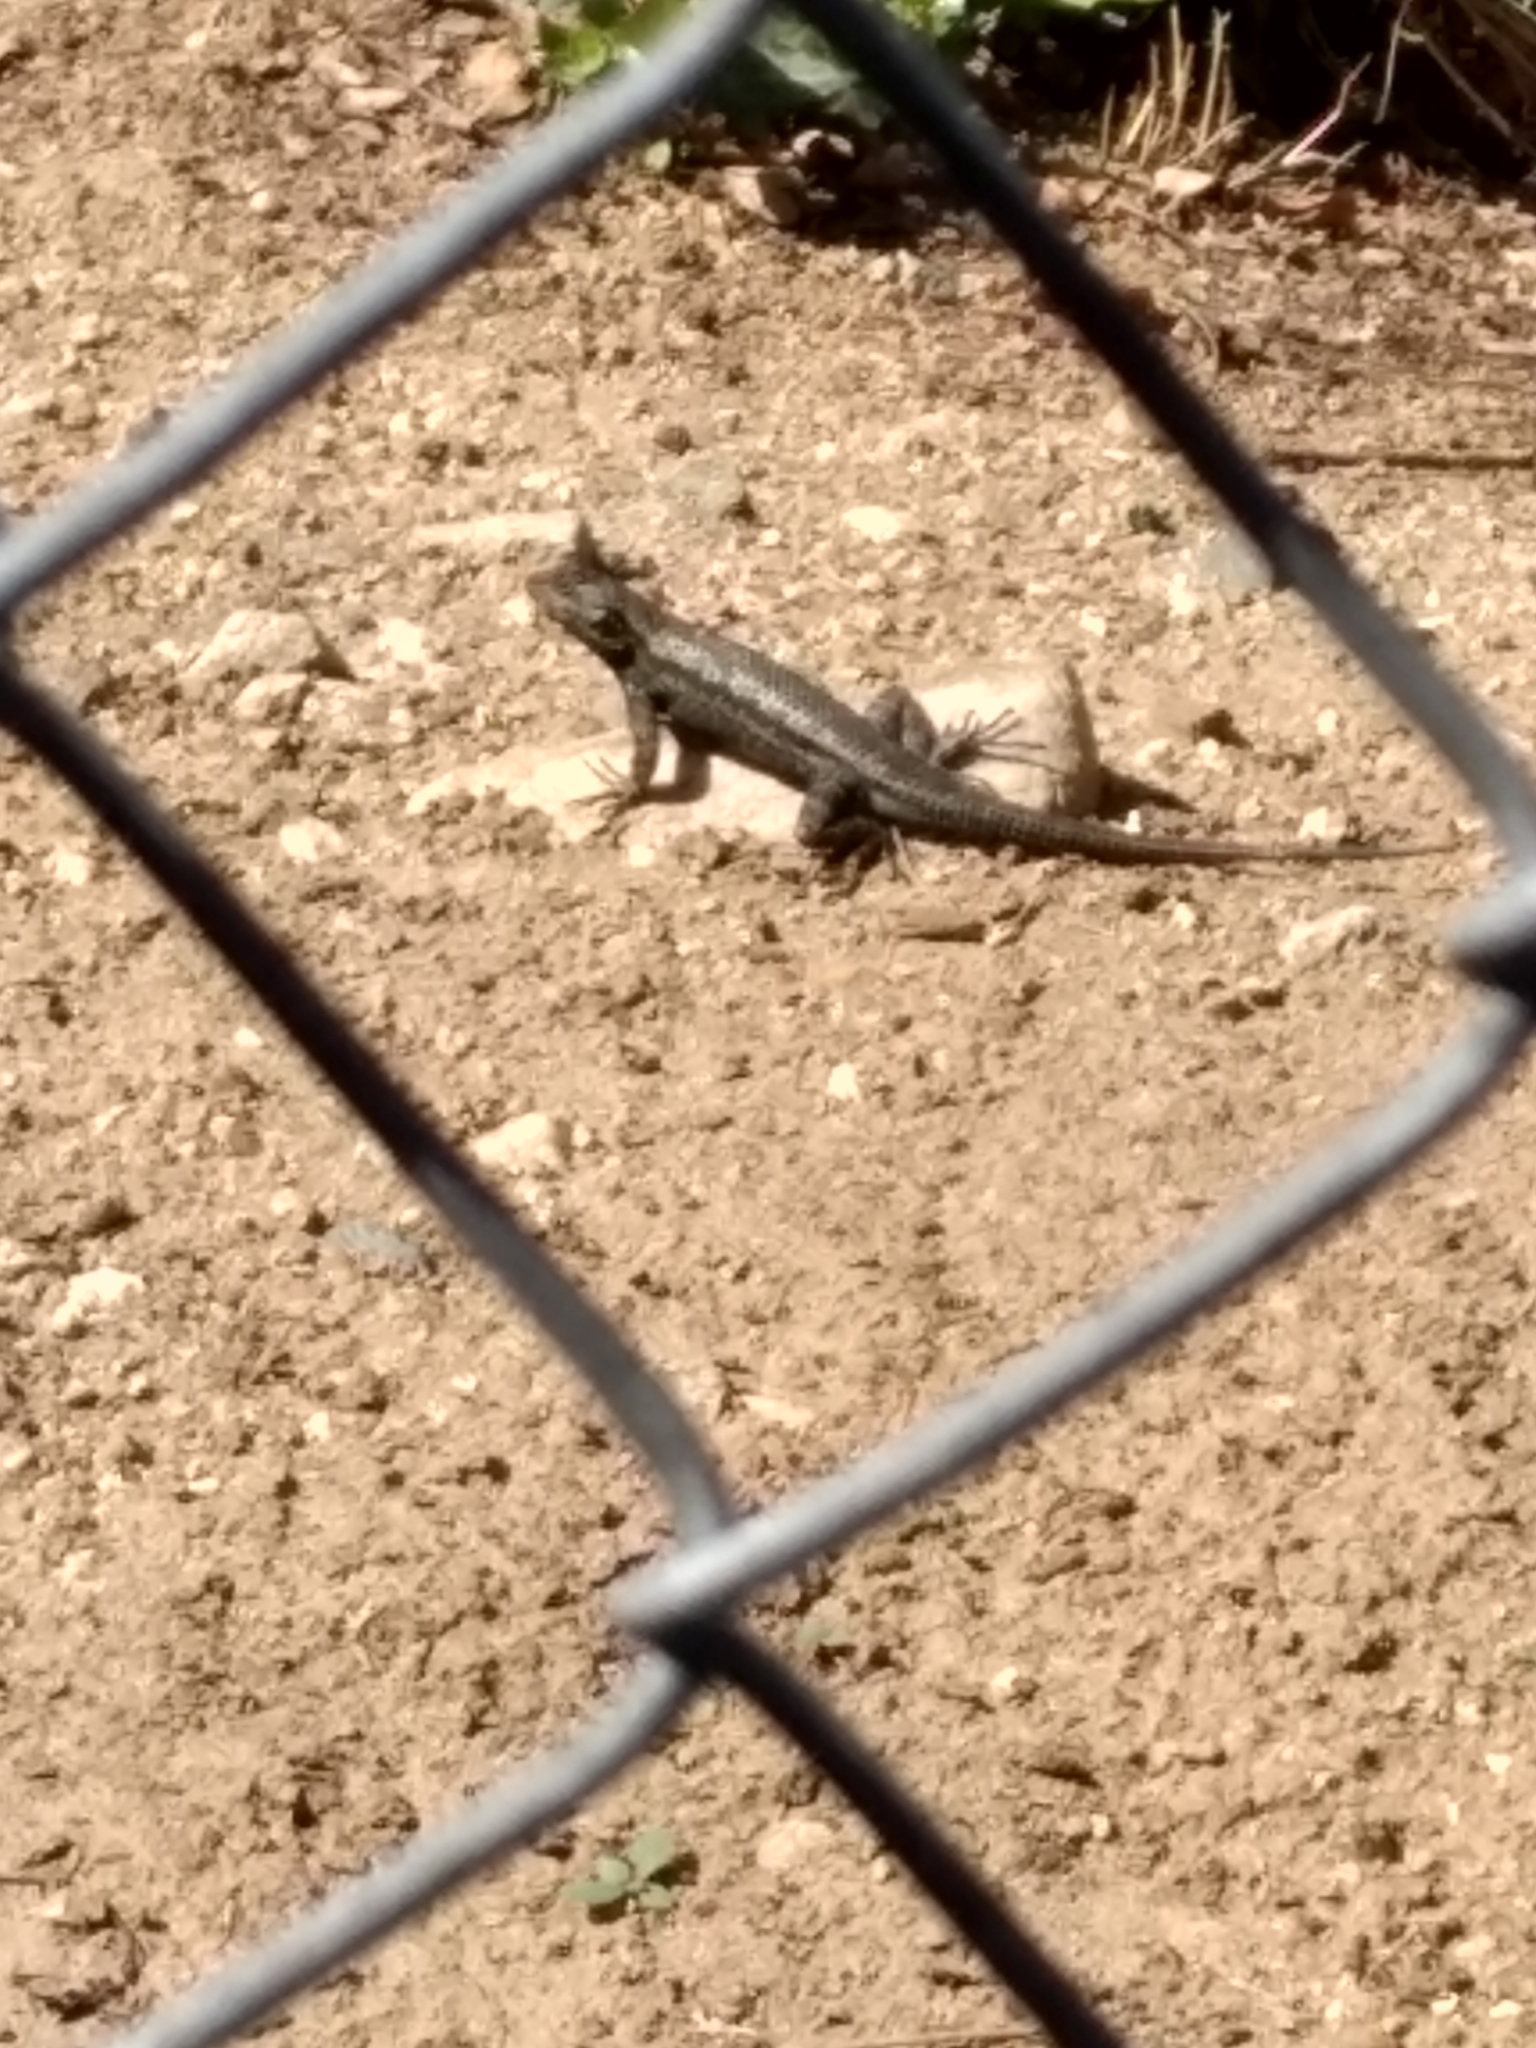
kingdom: Animalia
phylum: Chordata
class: Squamata
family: Phrynosomatidae
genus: Sceloporus
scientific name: Sceloporus occidentalis
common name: Western fence lizard
